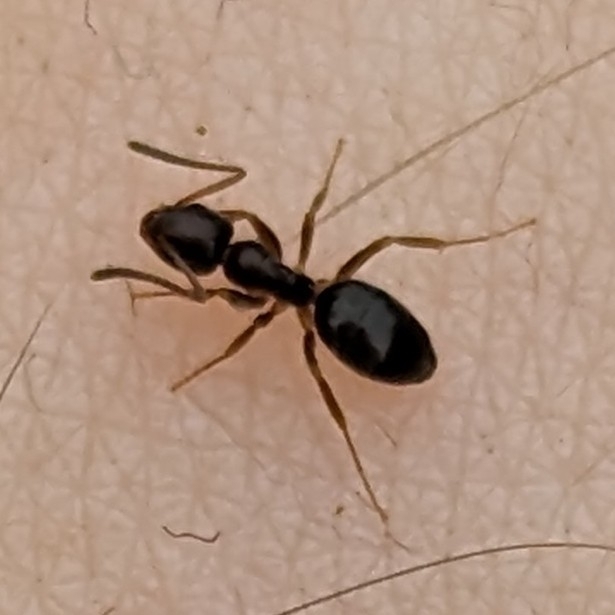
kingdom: Animalia
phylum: Arthropoda
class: Insecta
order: Hymenoptera
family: Formicidae
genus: Tapinoma
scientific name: Tapinoma sessile
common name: Odorous house ant
